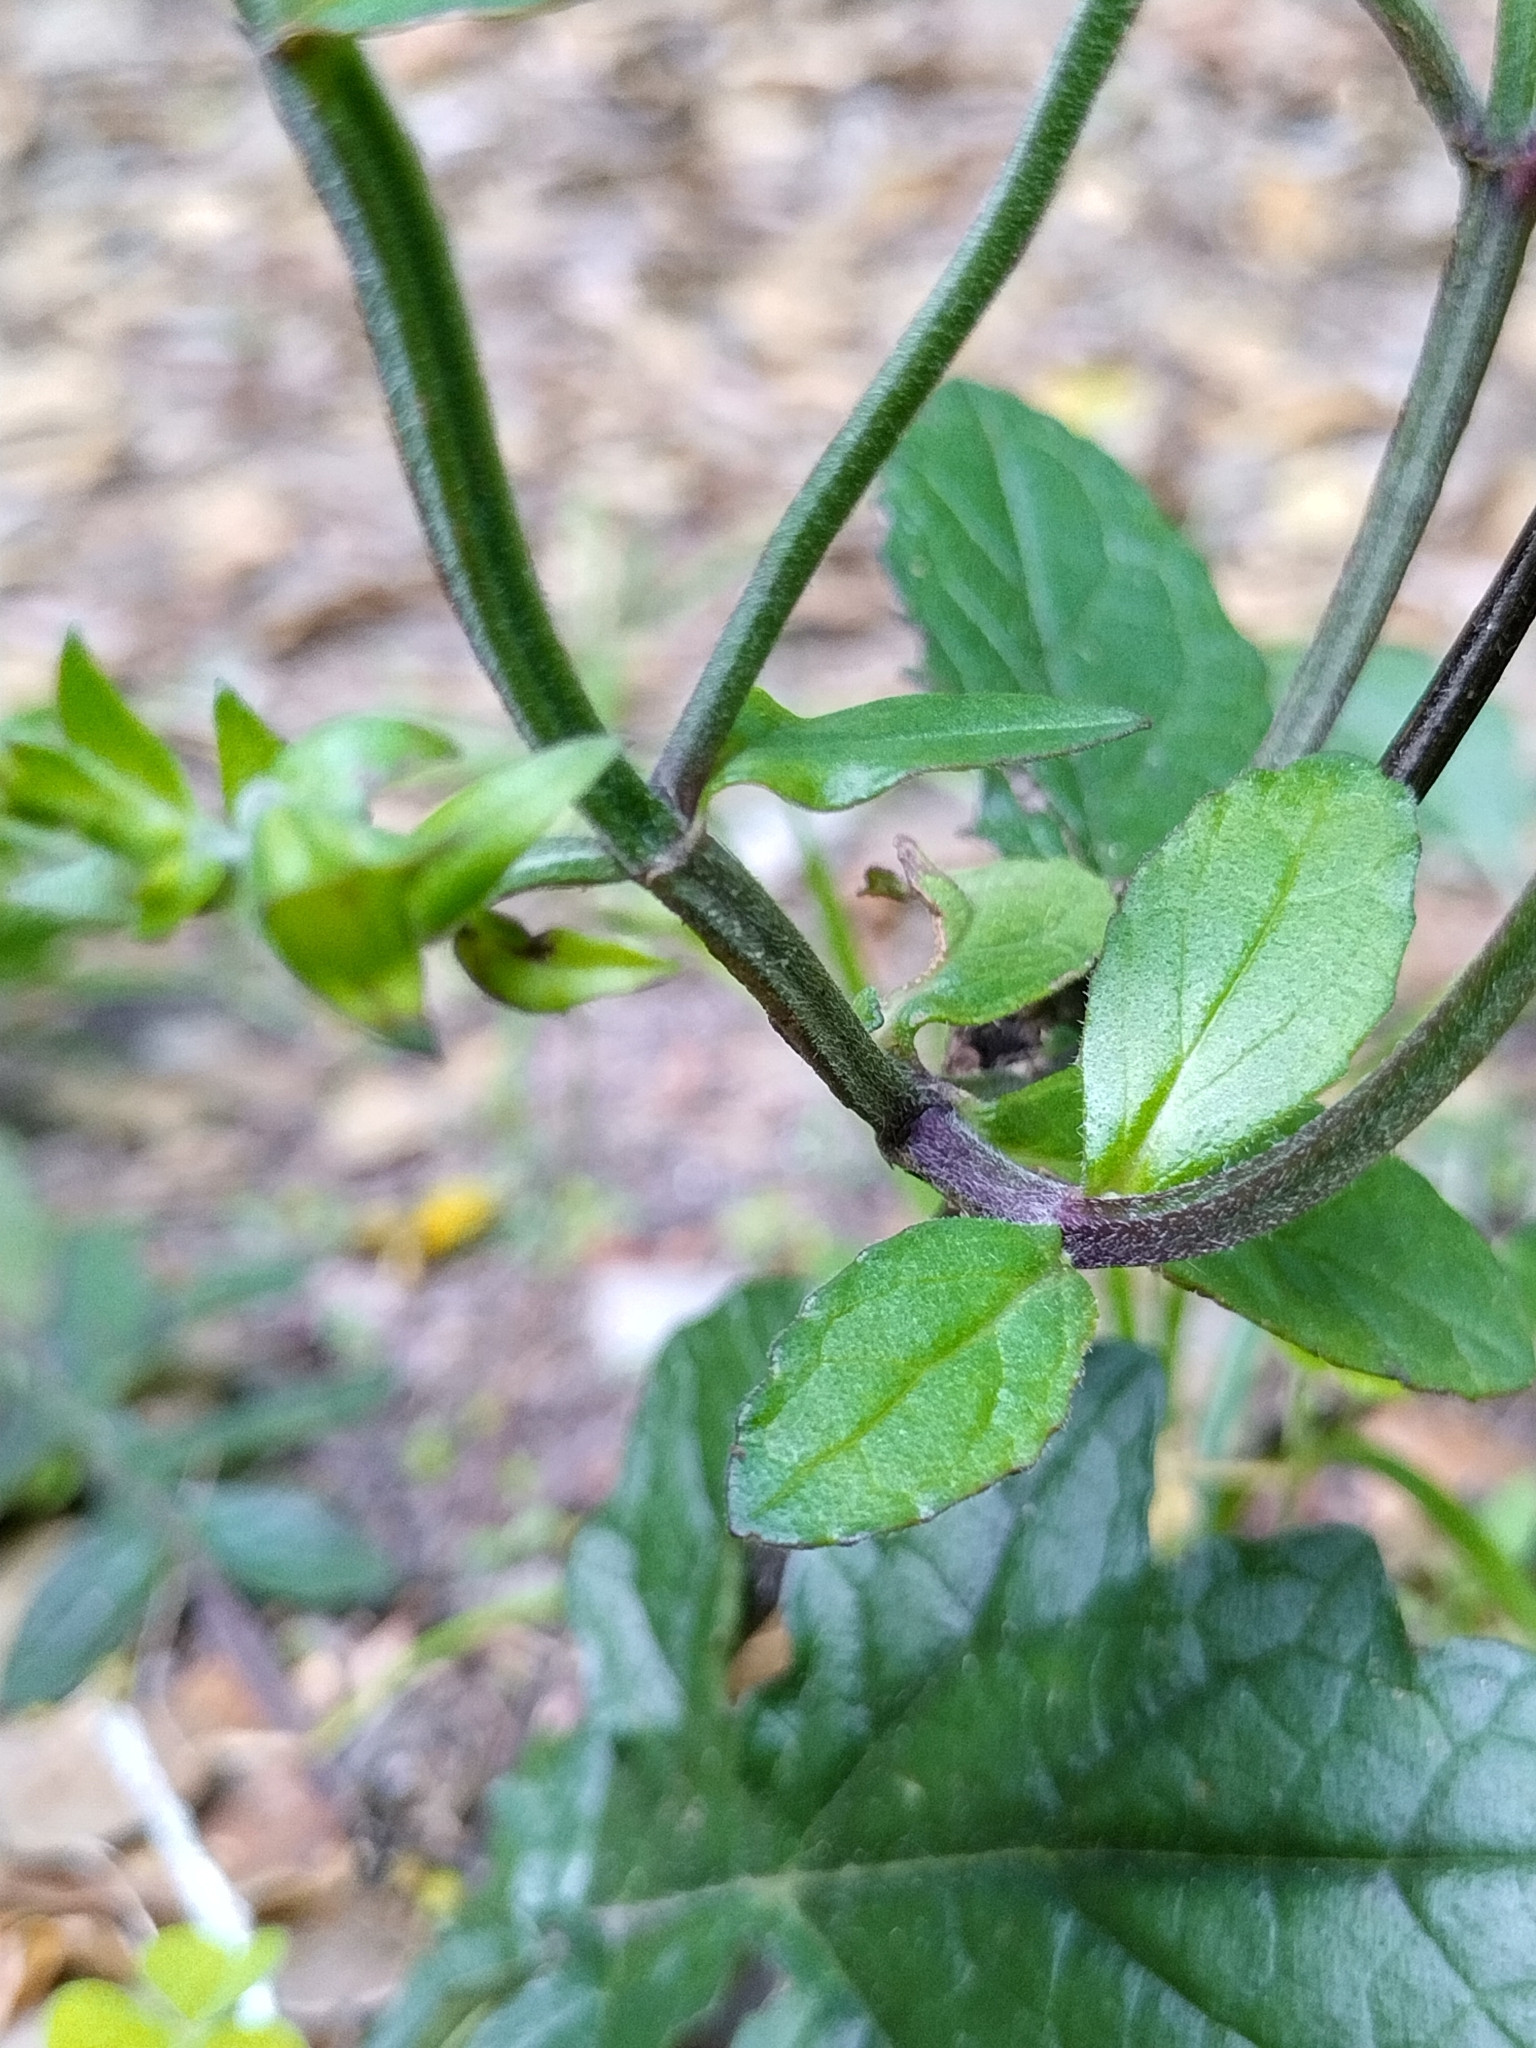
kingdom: Plantae
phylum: Tracheophyta
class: Magnoliopsida
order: Lamiales
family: Lamiaceae
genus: Salvia
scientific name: Salvia lyrata
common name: Cancerweed
